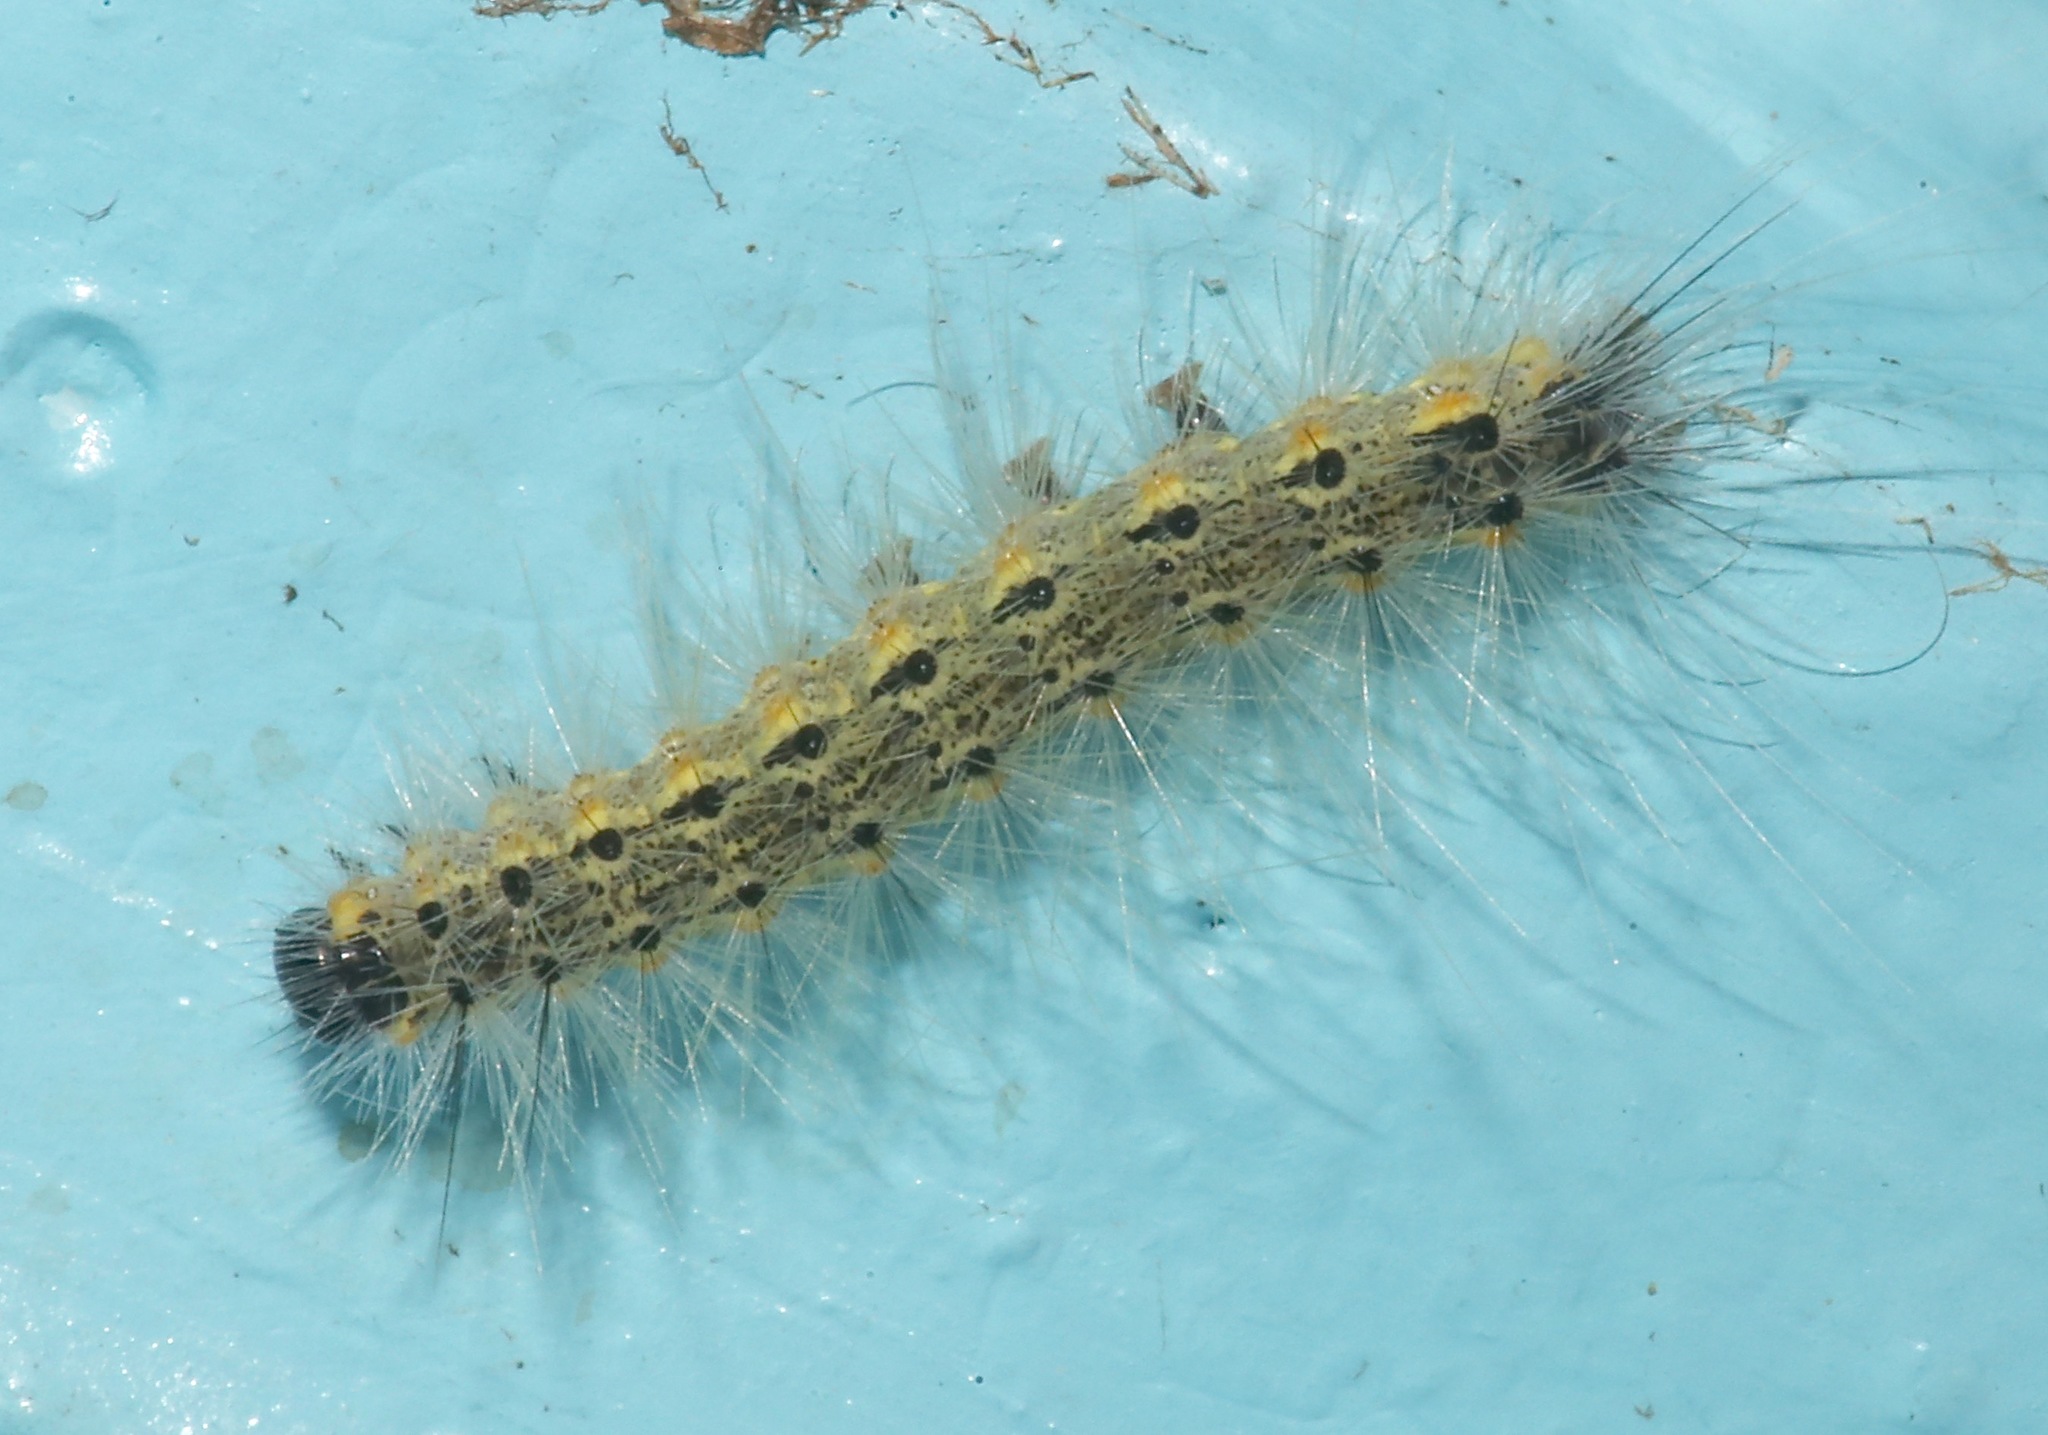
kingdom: Animalia
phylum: Arthropoda
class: Insecta
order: Lepidoptera
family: Erebidae
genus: Hyphantria
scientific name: Hyphantria cunea
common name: American white moth
